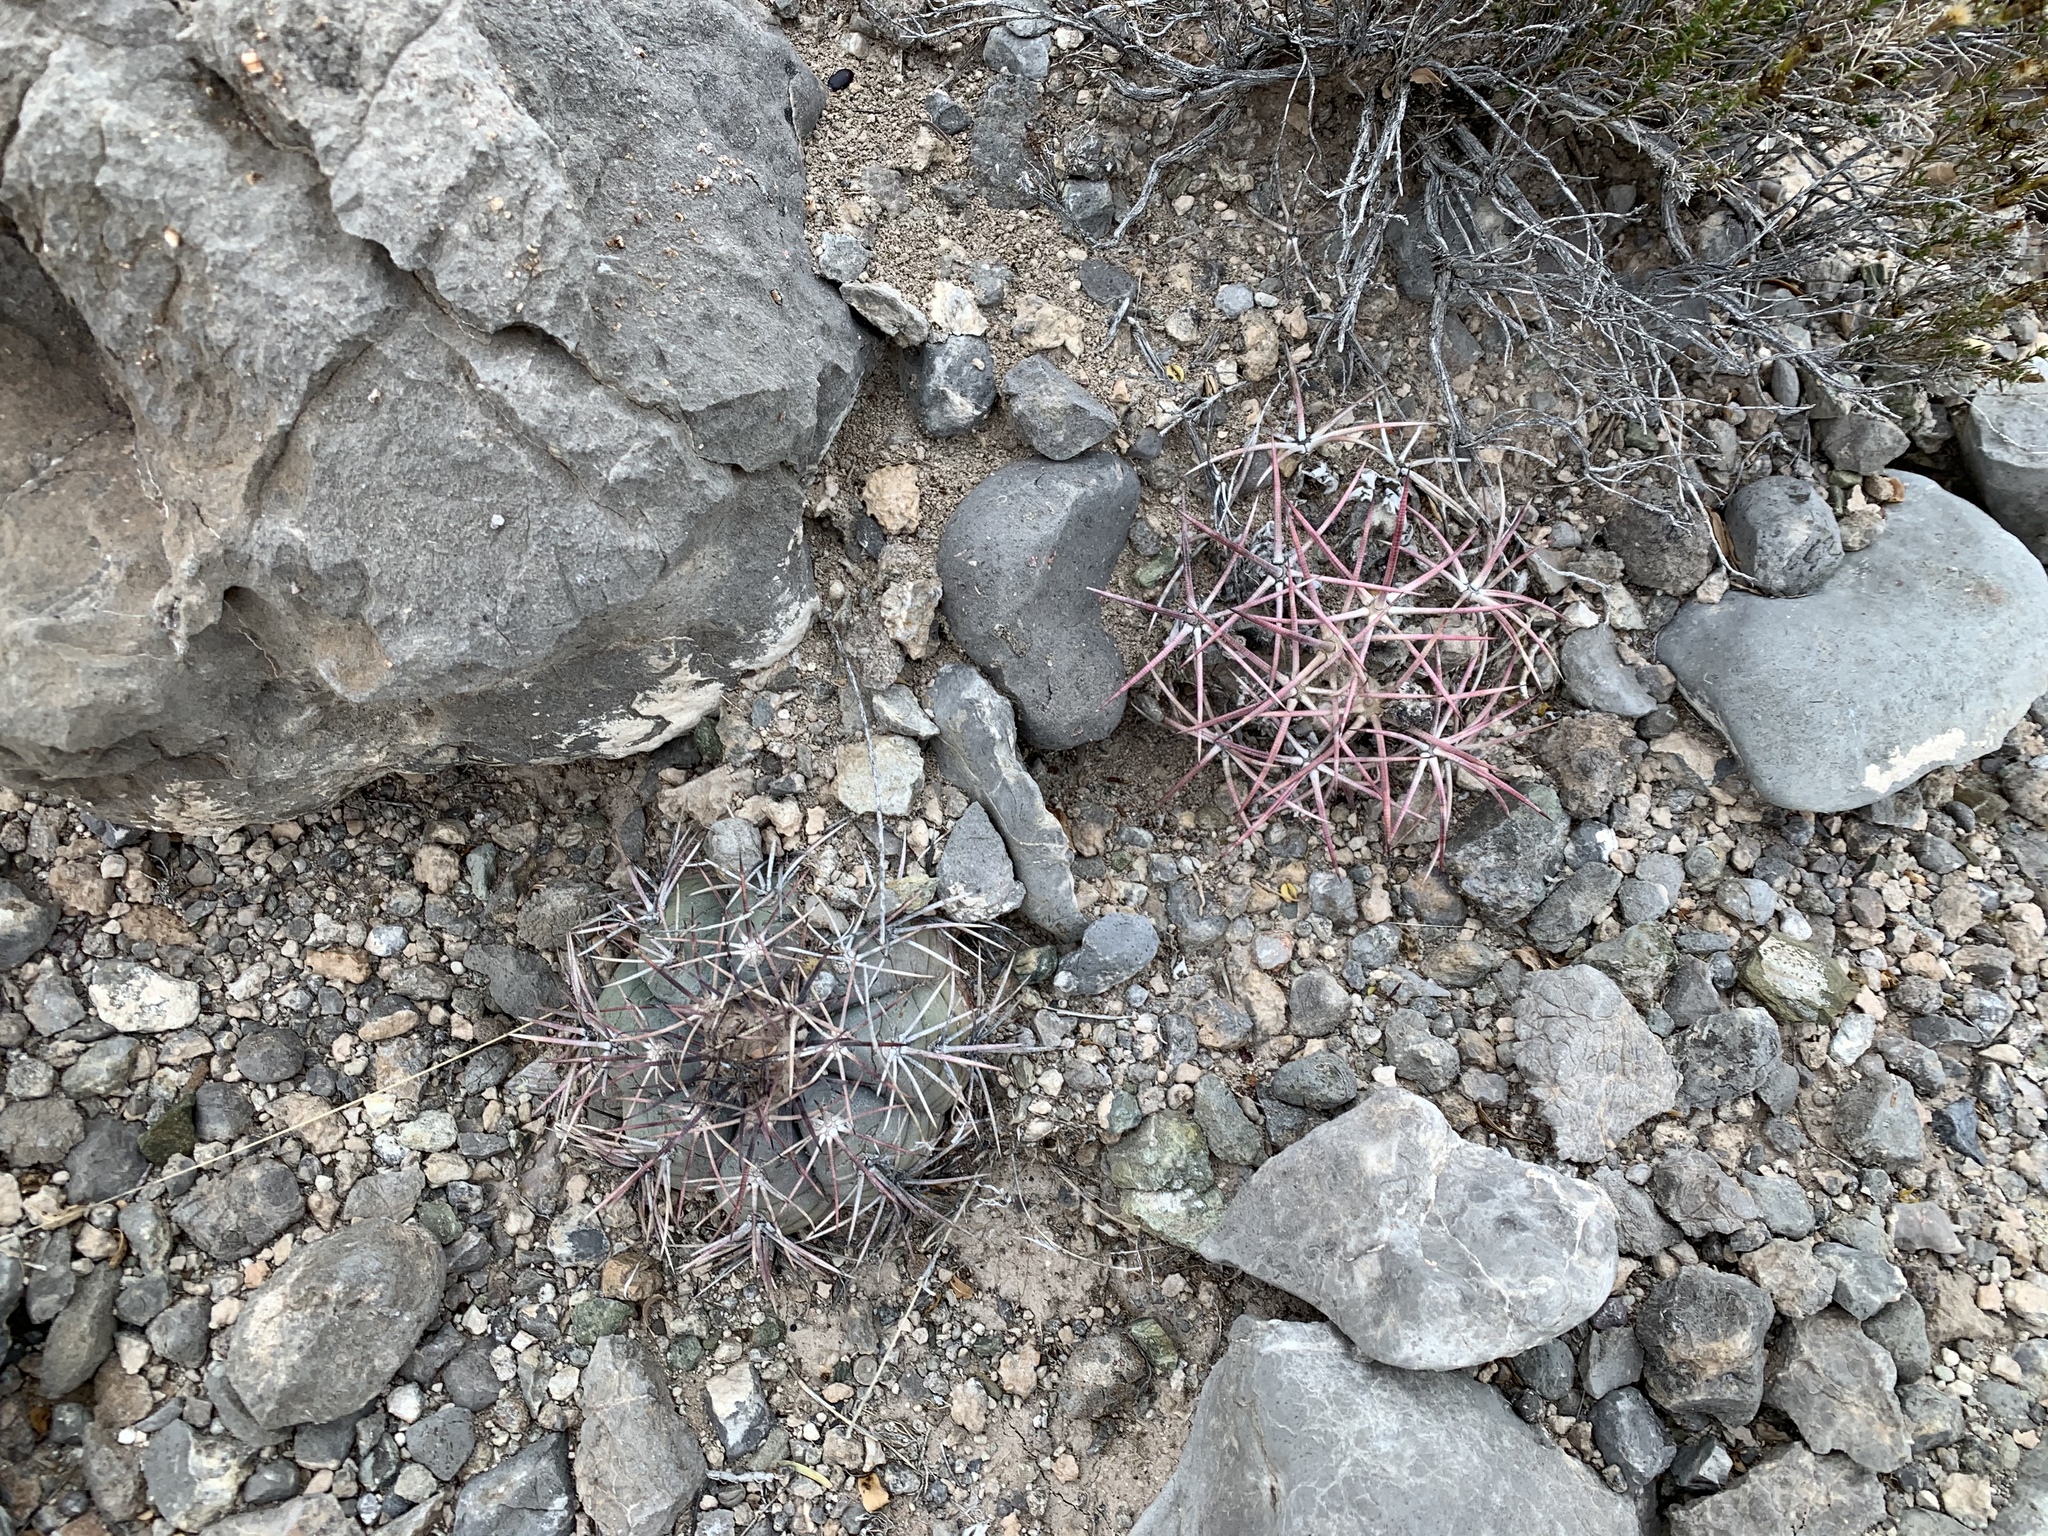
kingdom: Plantae
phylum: Tracheophyta
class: Magnoliopsida
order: Caryophyllales
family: Cactaceae
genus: Echinocactus
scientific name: Echinocactus horizonthalonius
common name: Devilshead
